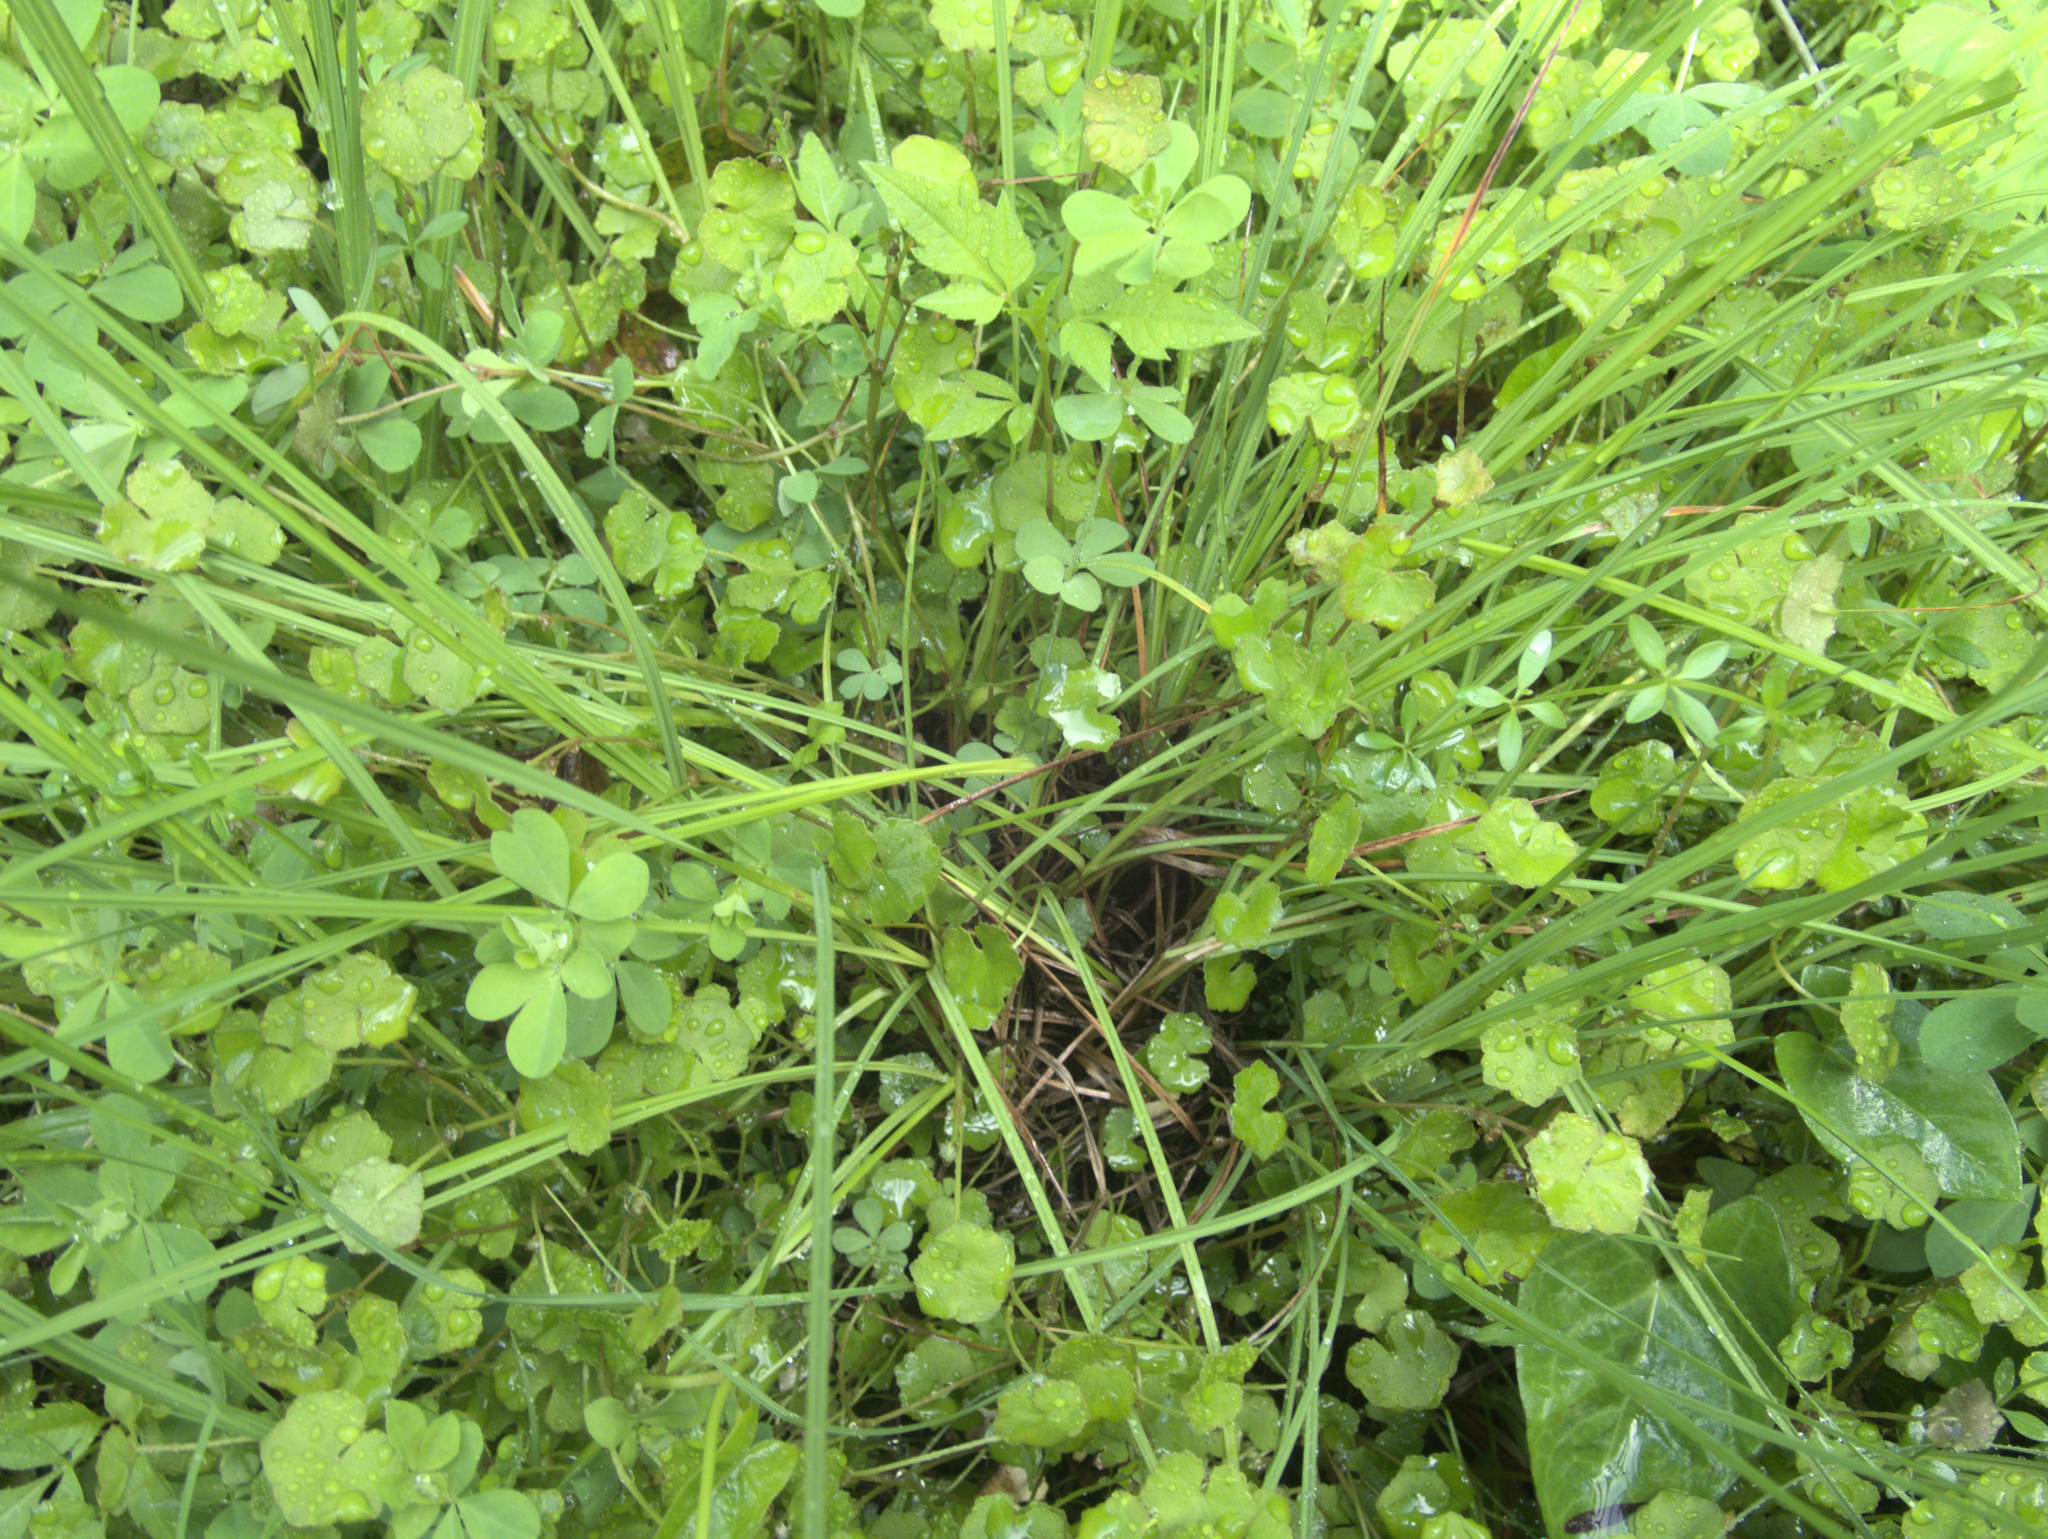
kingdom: Plantae
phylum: Tracheophyta
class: Magnoliopsida
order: Apiales
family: Araliaceae
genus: Hydrocotyle
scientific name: Hydrocotyle novae-zeelandiae
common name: New zealand pennywort
